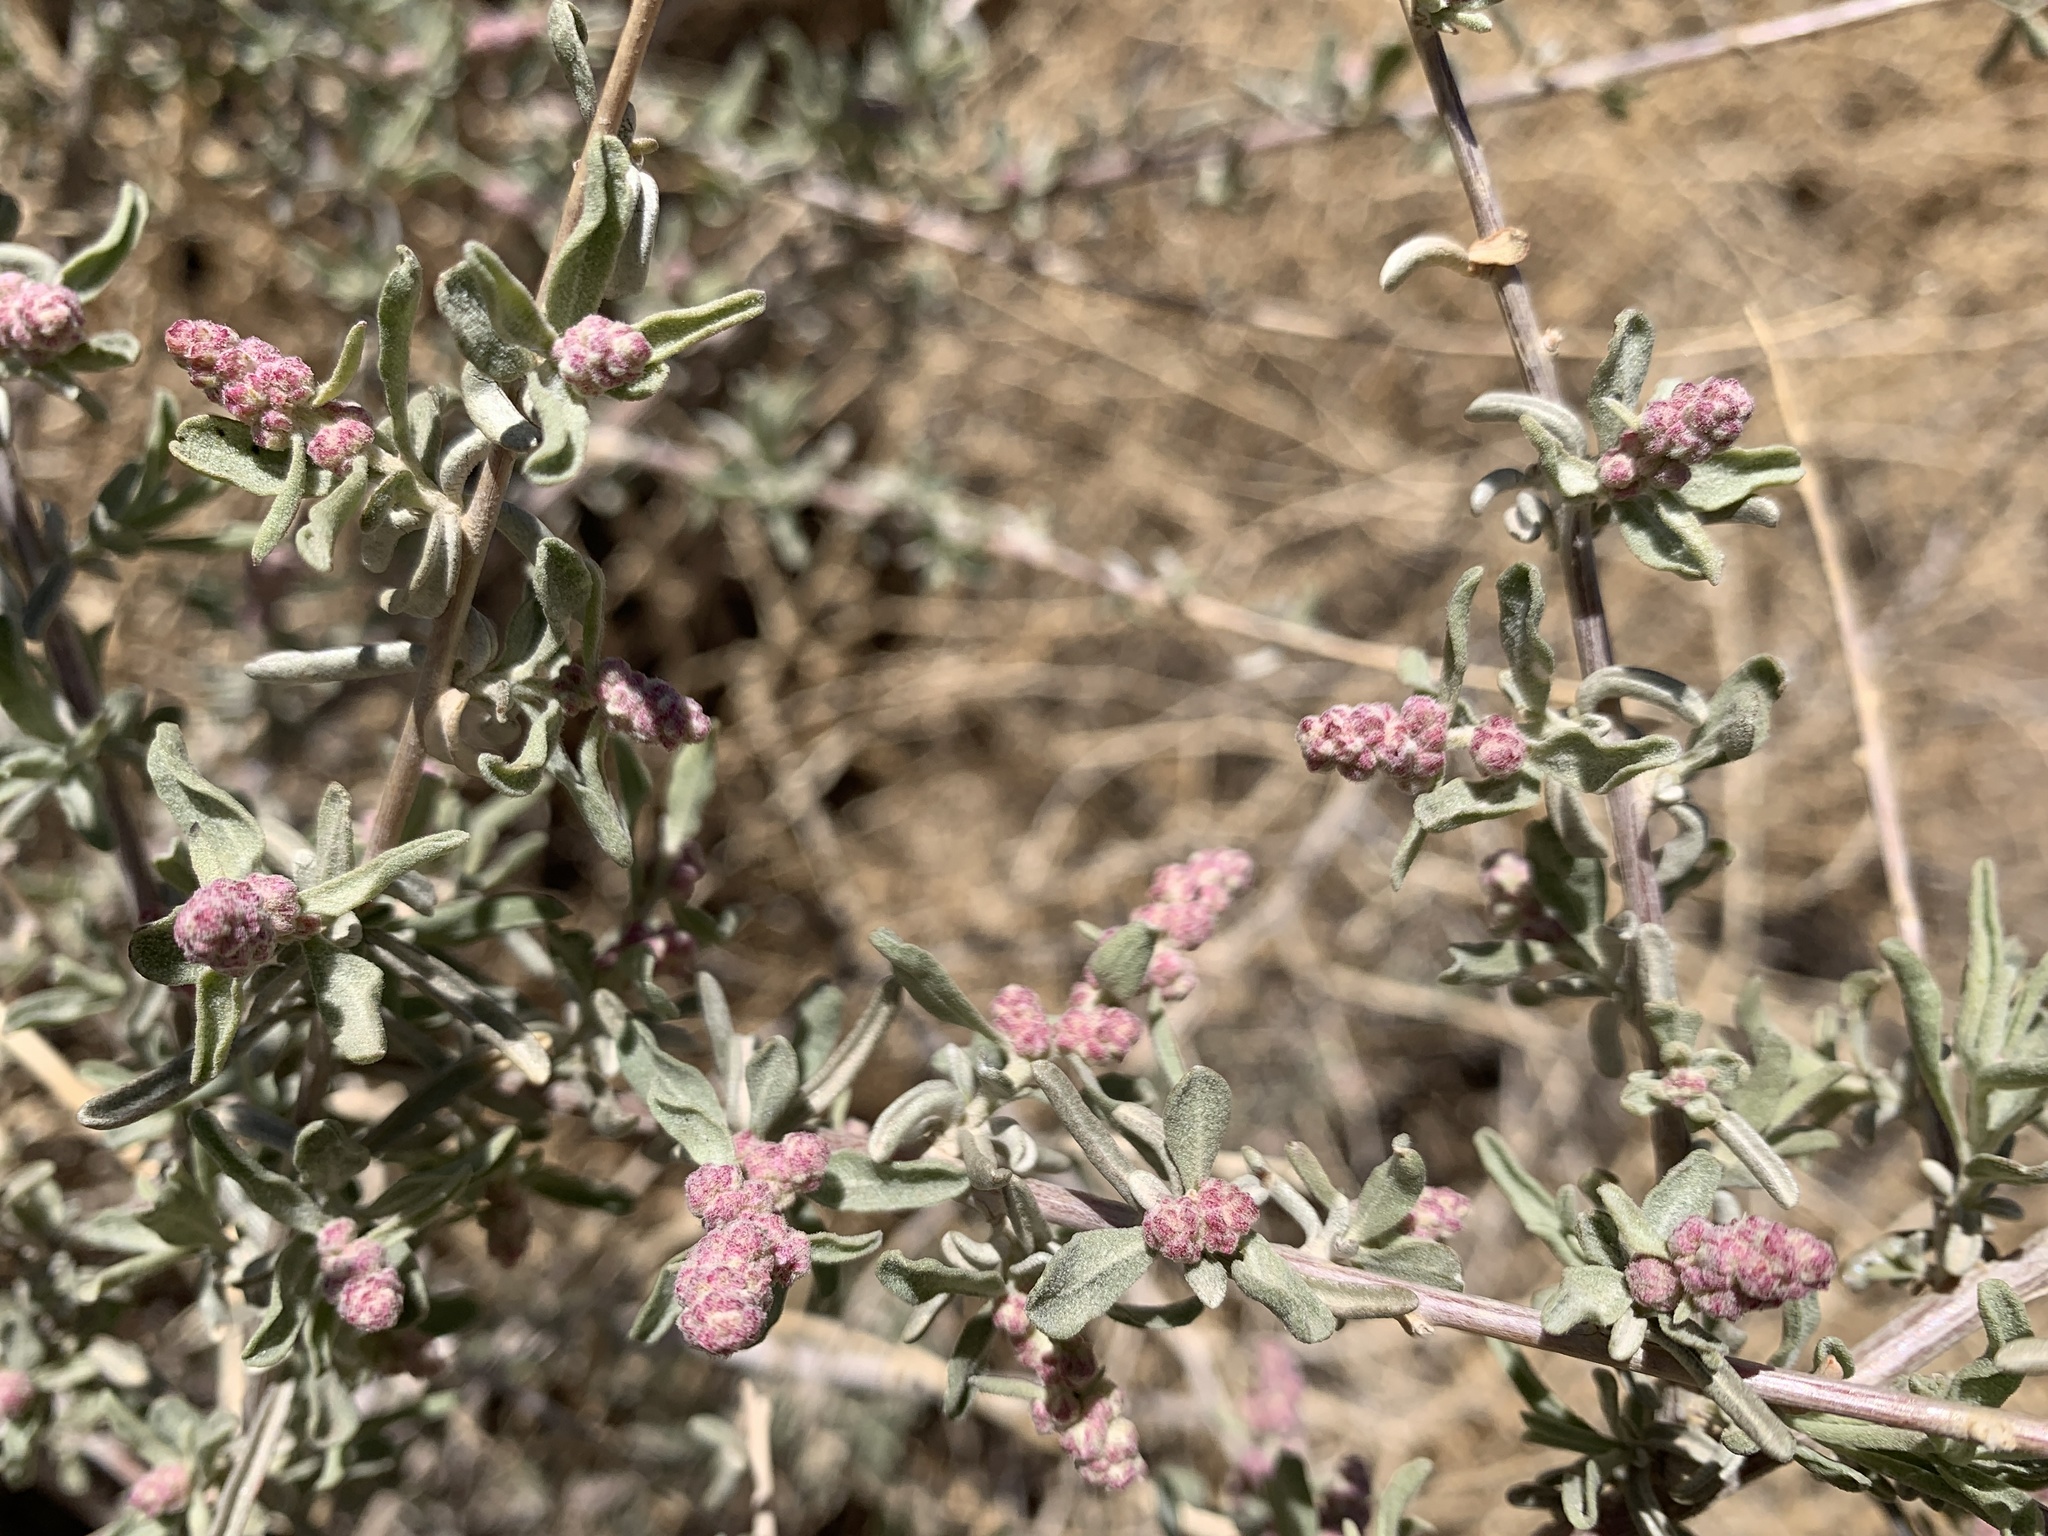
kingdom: Plantae
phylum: Tracheophyta
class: Magnoliopsida
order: Caryophyllales
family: Amaranthaceae
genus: Suaeda
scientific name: Suaeda nigra
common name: Bush seepweed
